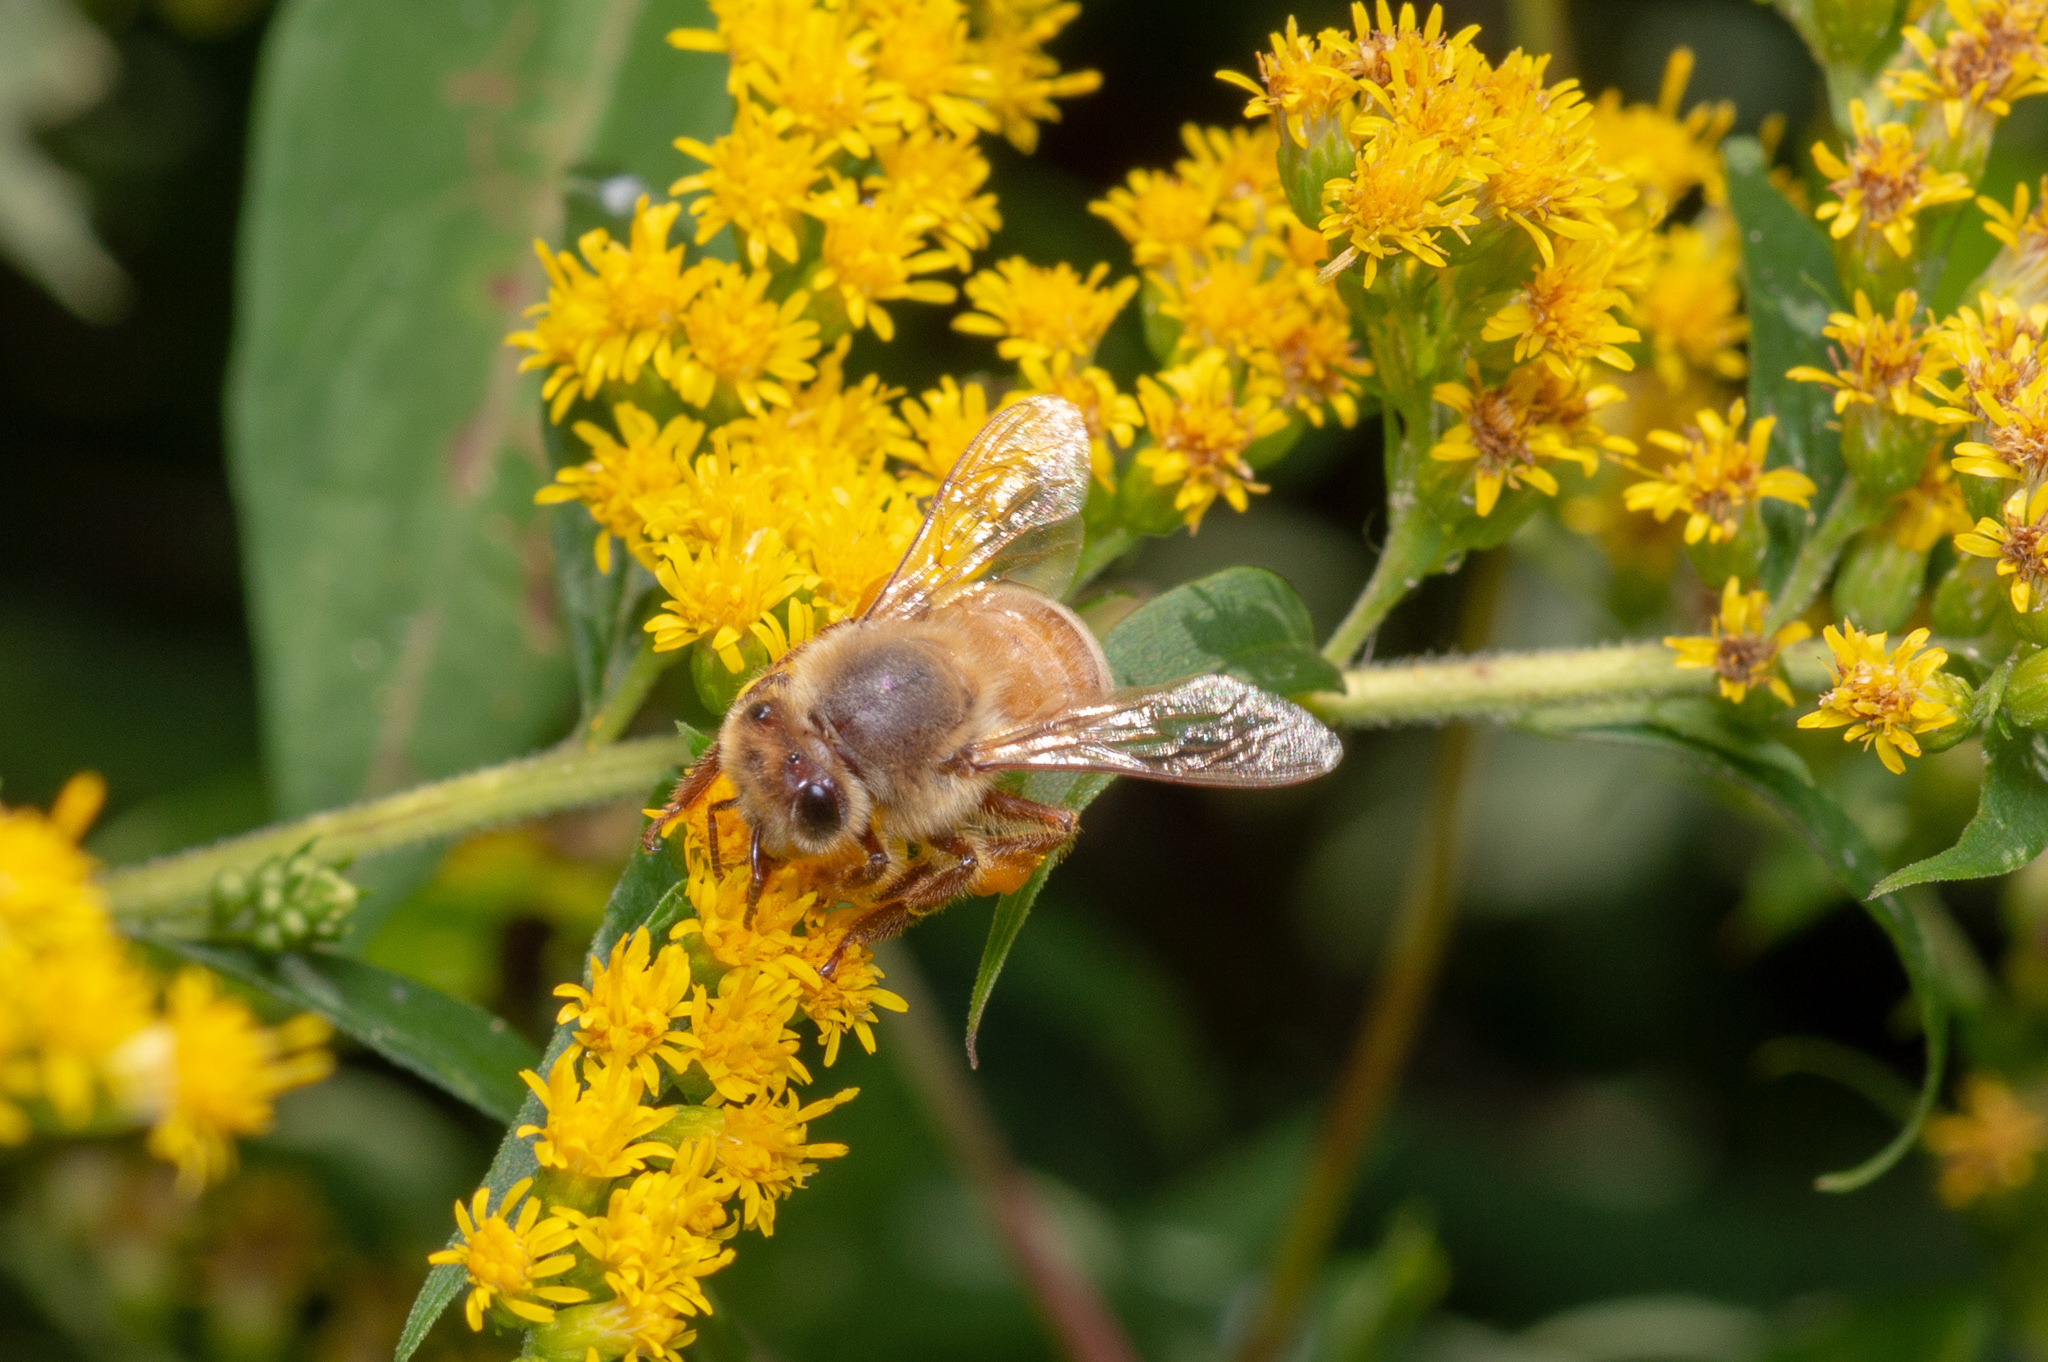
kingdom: Animalia
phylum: Arthropoda
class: Insecta
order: Hymenoptera
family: Apidae
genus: Apis
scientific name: Apis mellifera
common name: Honey bee
